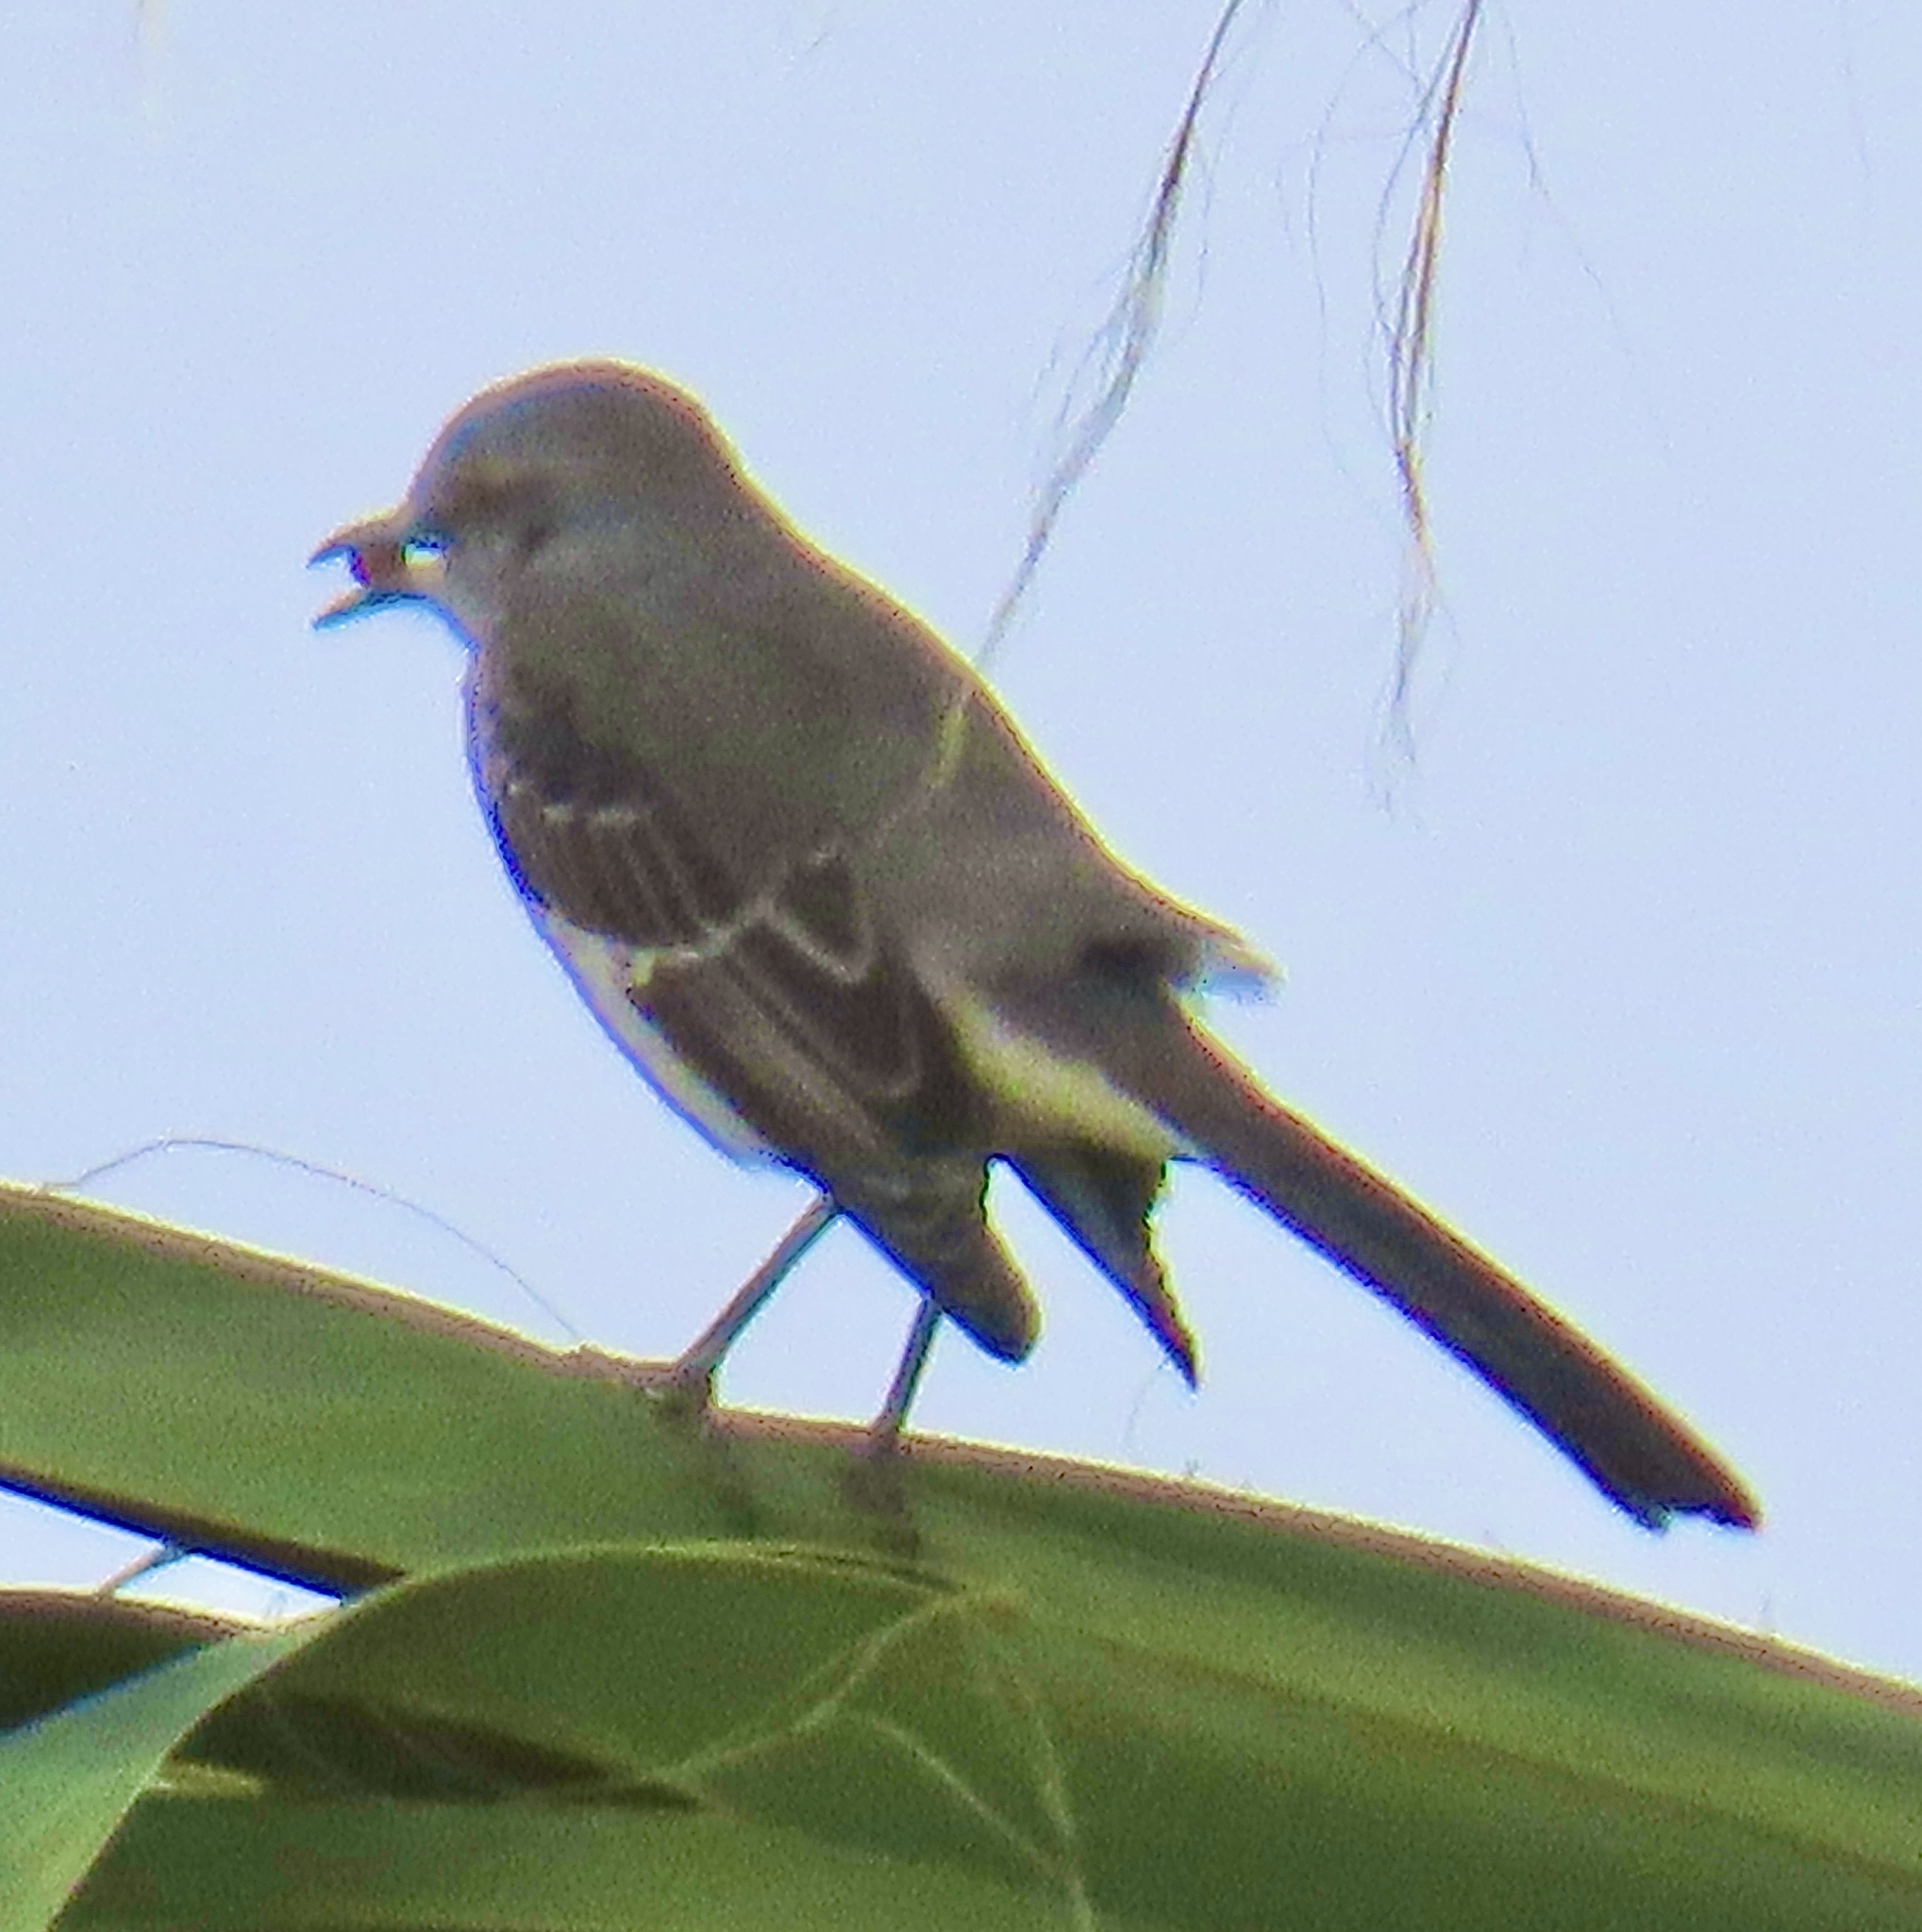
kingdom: Animalia
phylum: Chordata
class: Aves
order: Passeriformes
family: Mimidae
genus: Mimus
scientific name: Mimus polyglottos
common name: Northern mockingbird
